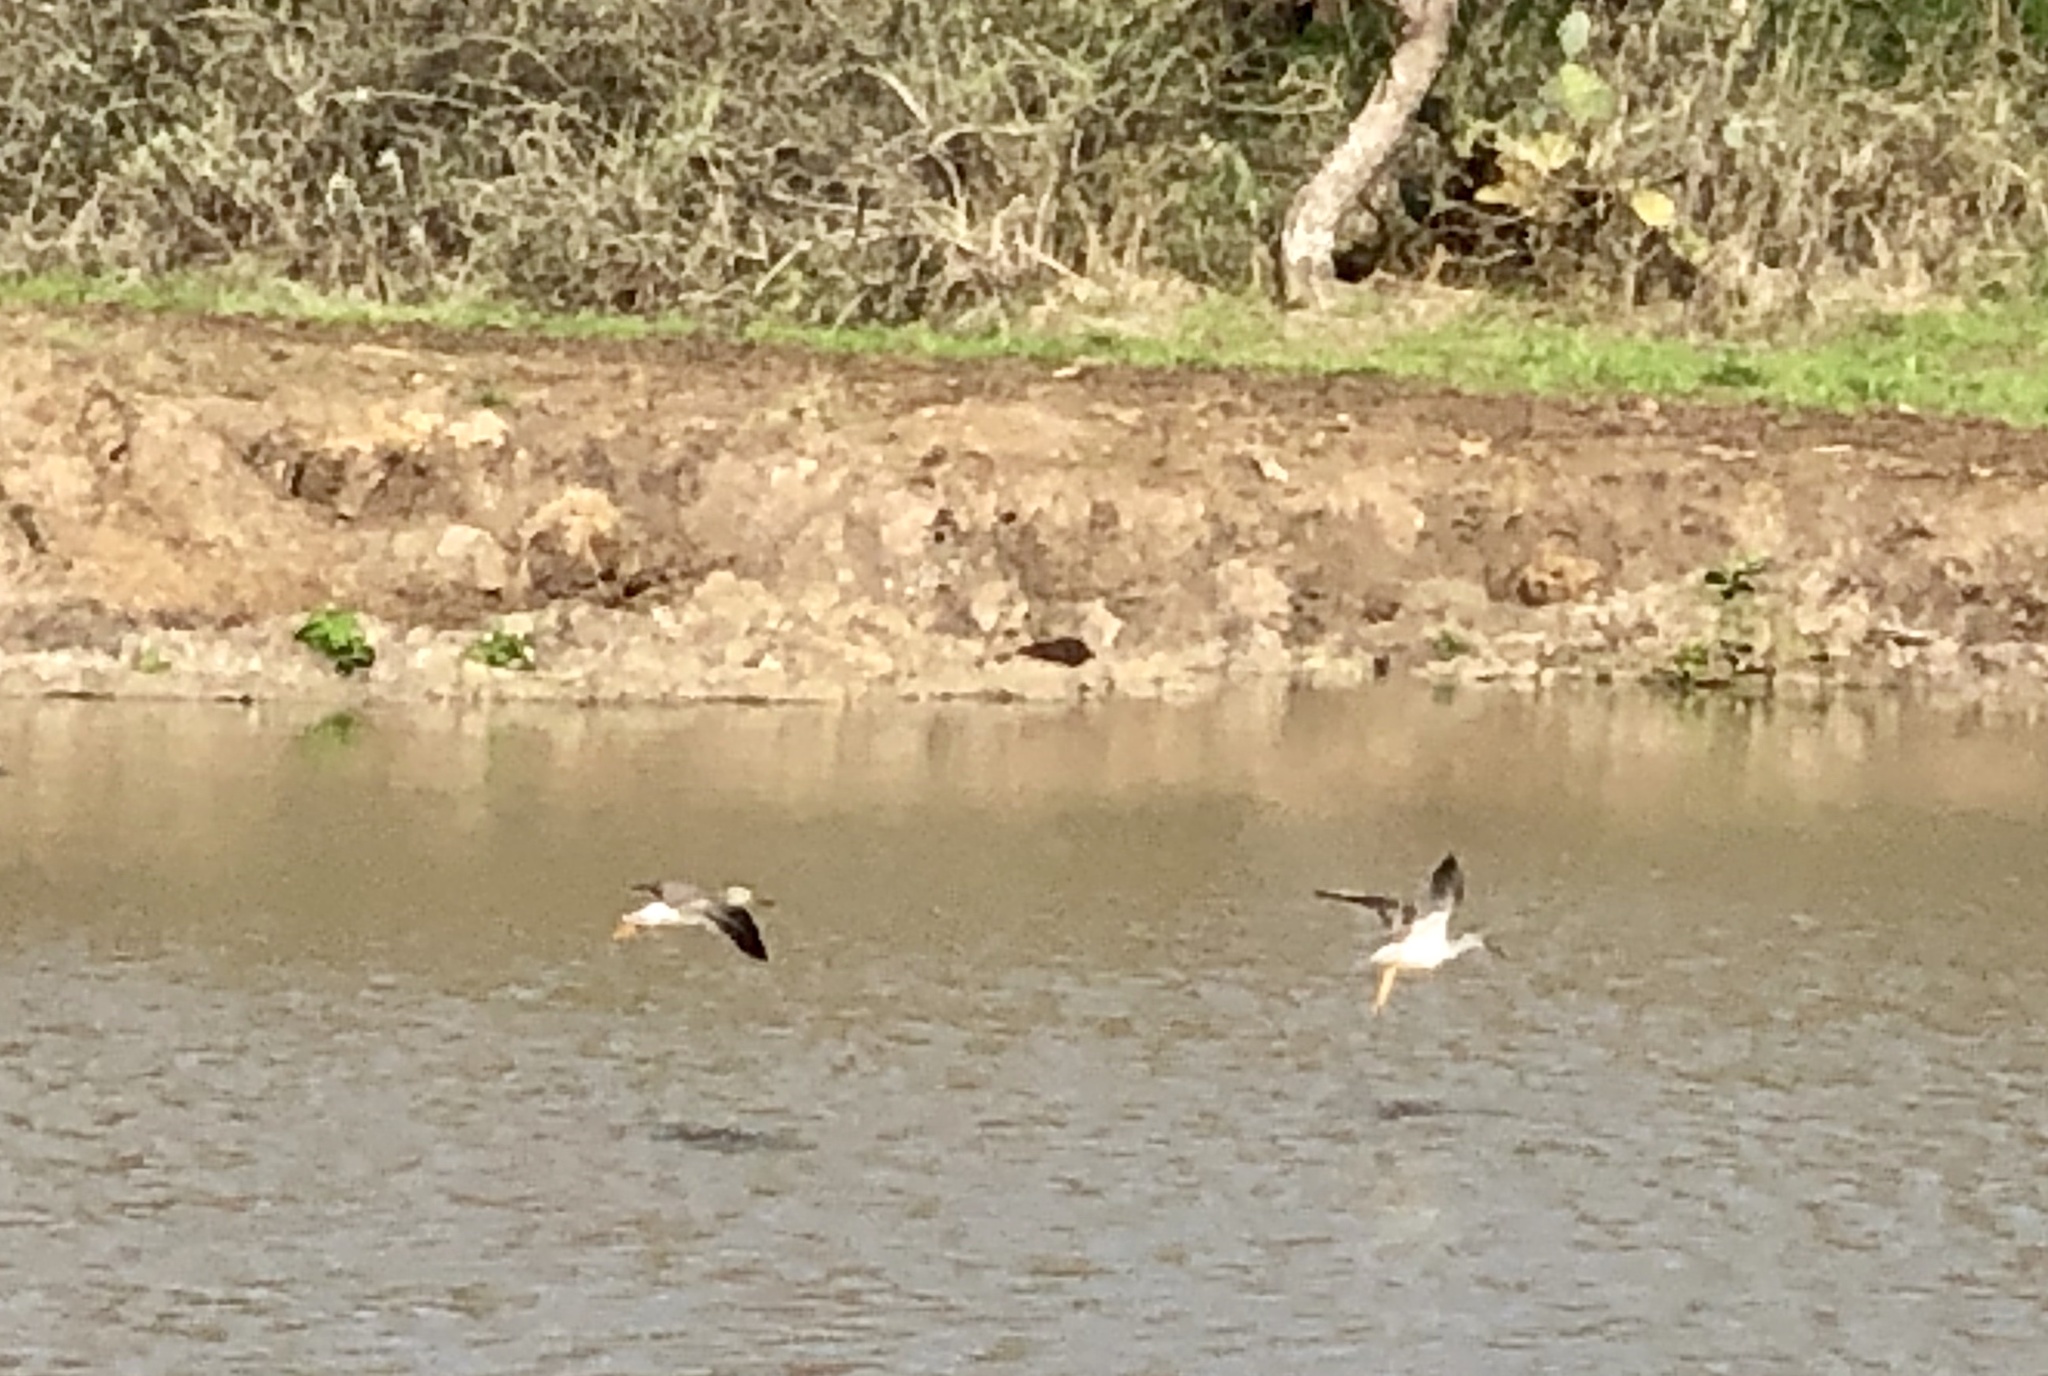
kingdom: Animalia
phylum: Chordata
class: Aves
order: Charadriiformes
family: Scolopacidae
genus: Tringa
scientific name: Tringa
